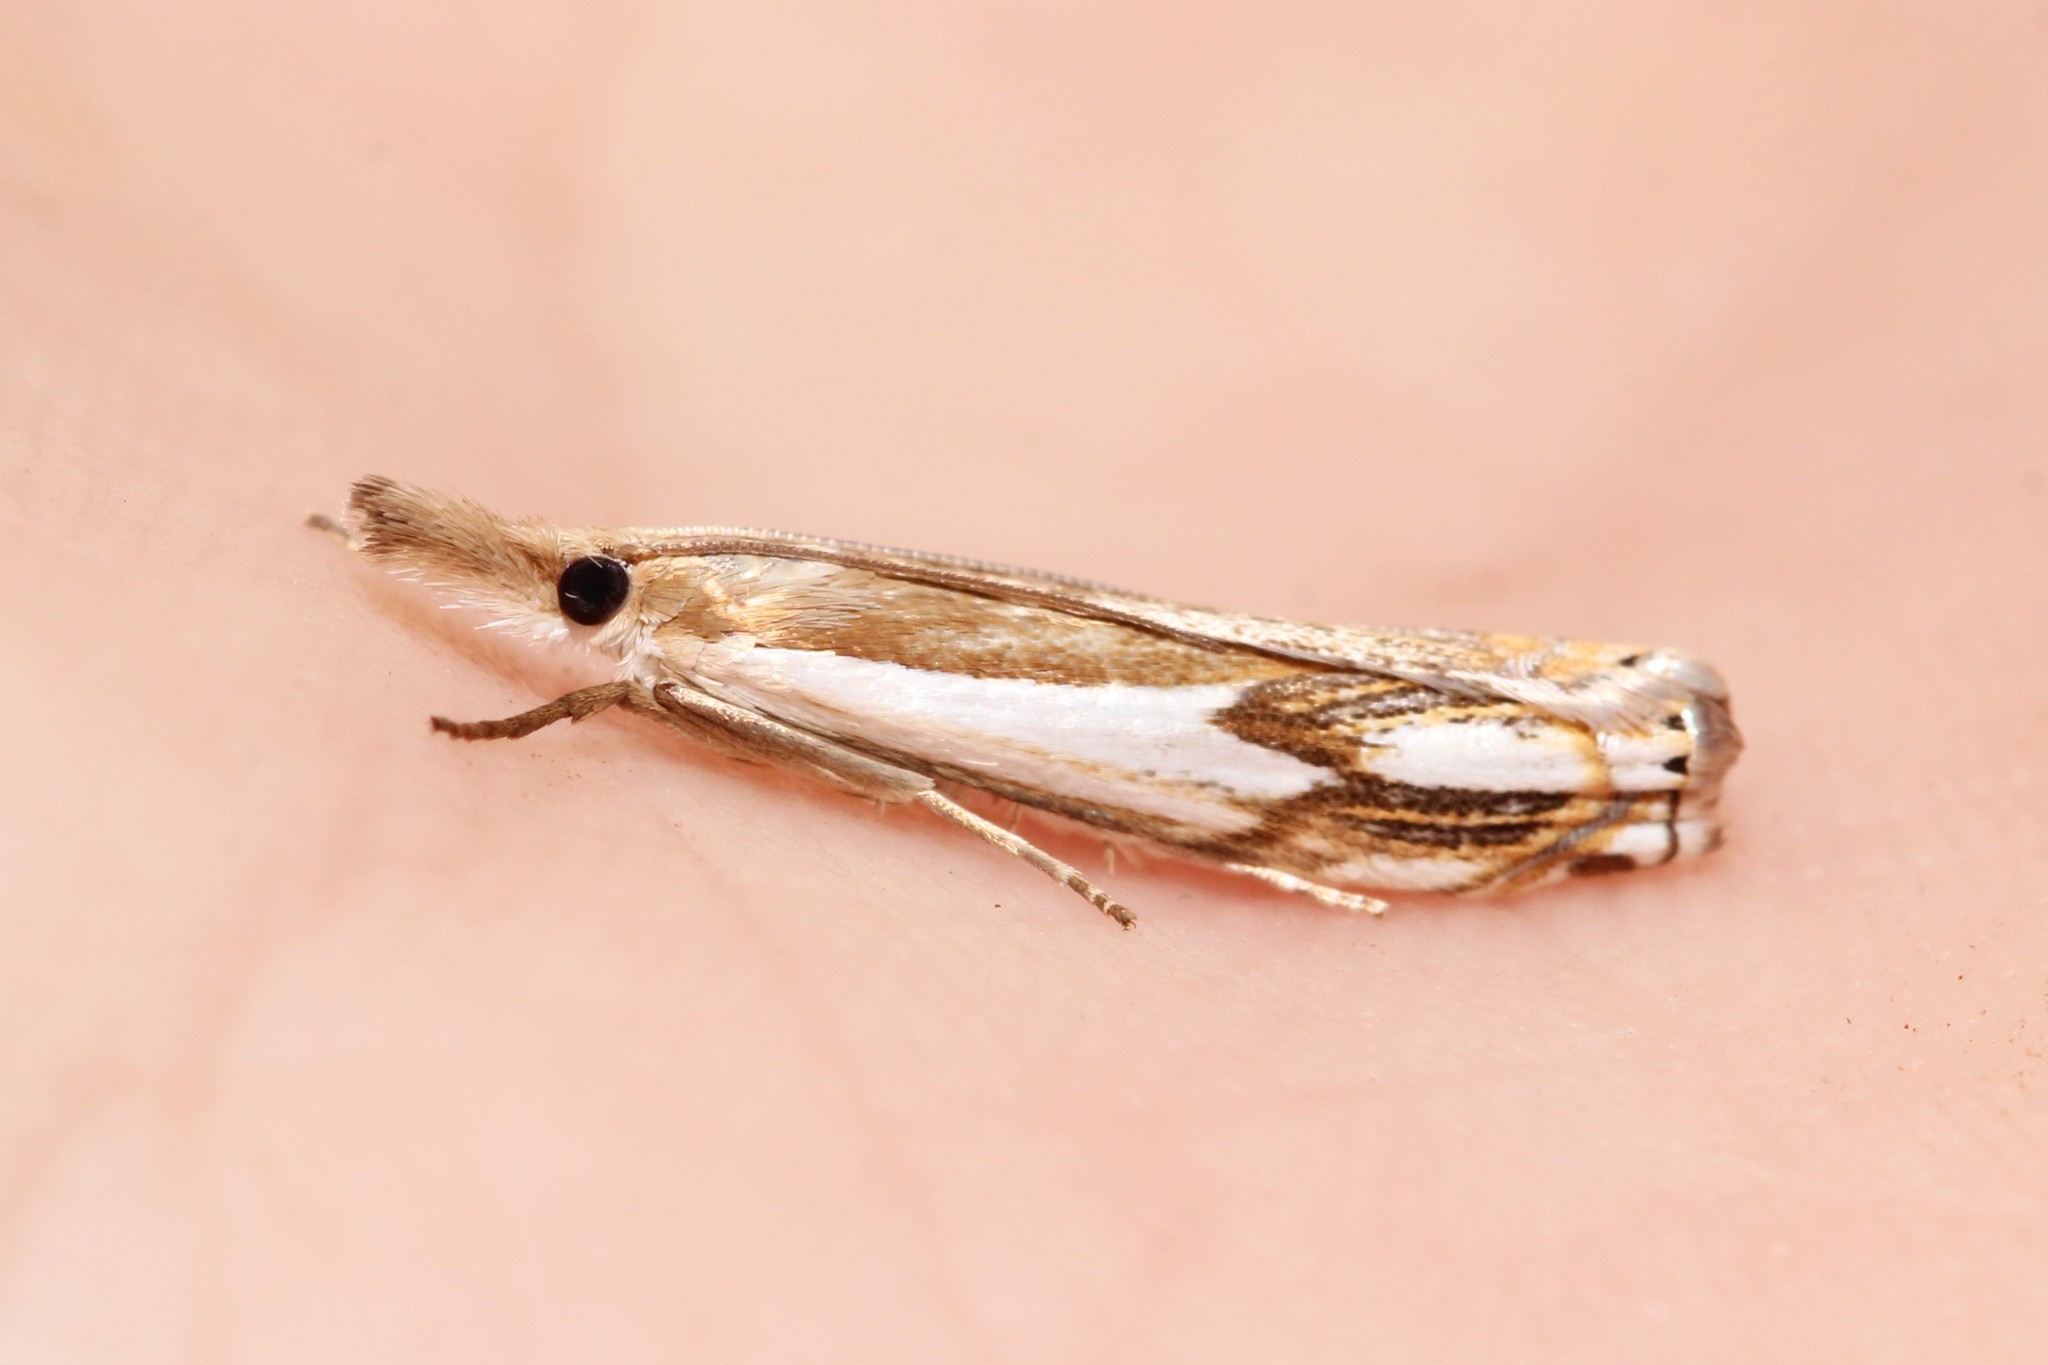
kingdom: Animalia
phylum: Arthropoda
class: Insecta
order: Lepidoptera
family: Crambidae
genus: Crambus
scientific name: Crambus agitatellus
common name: Double-banded grass-veneer
